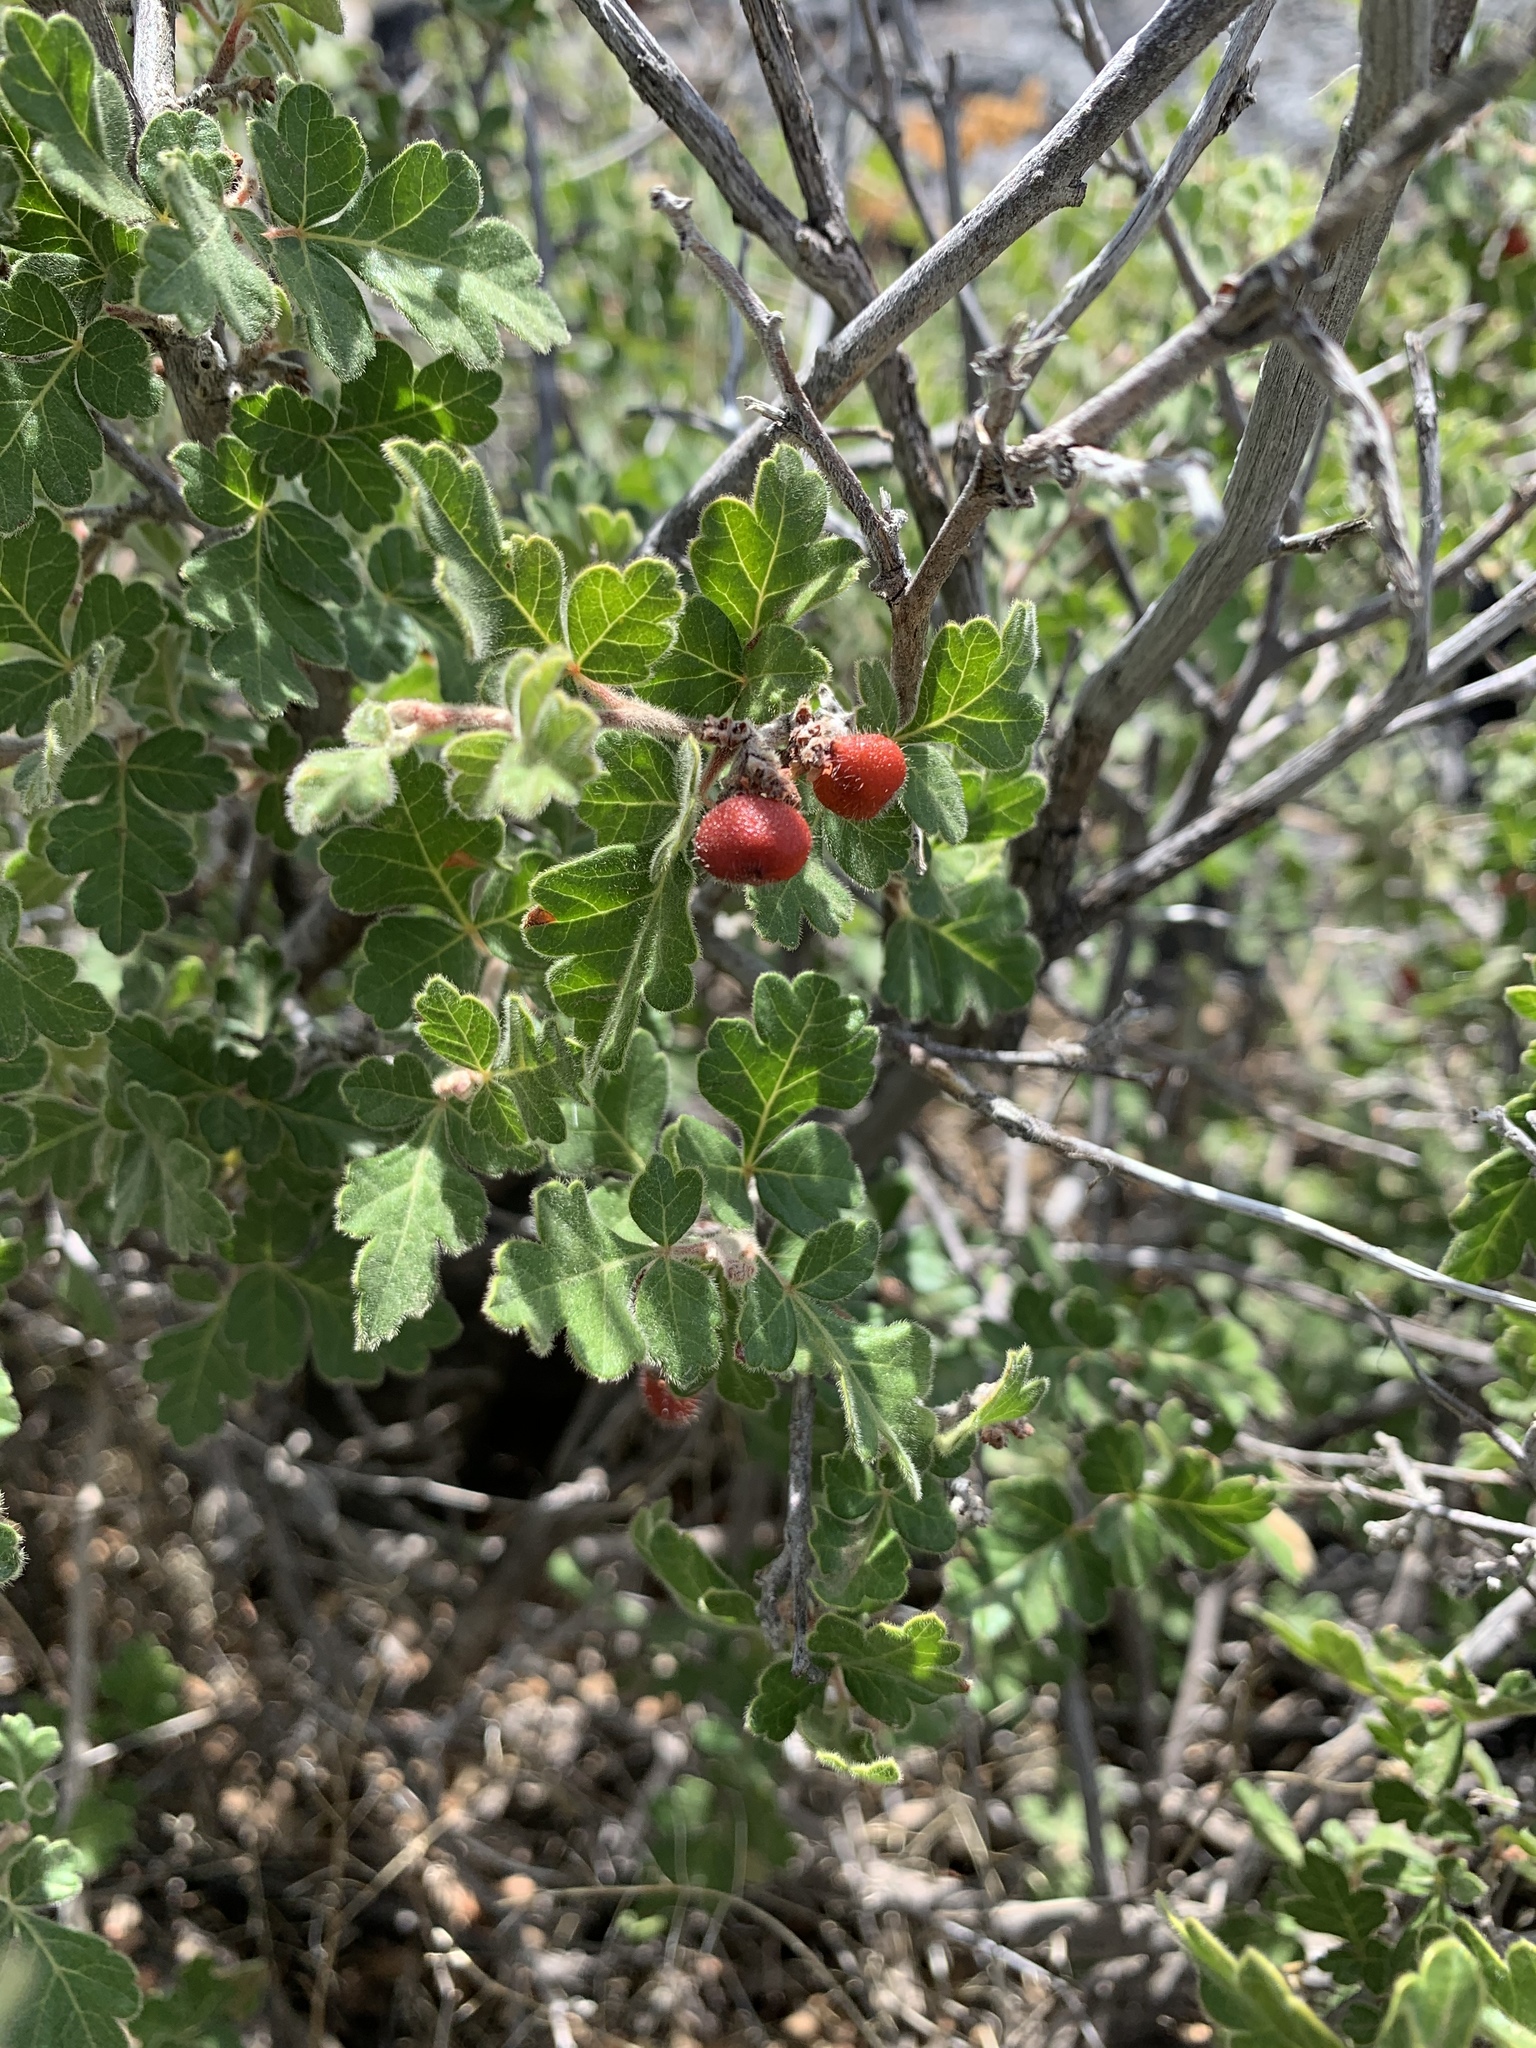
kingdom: Plantae
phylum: Tracheophyta
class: Magnoliopsida
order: Sapindales
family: Anacardiaceae
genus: Rhus
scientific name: Rhus aromatica
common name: Aromatic sumac
